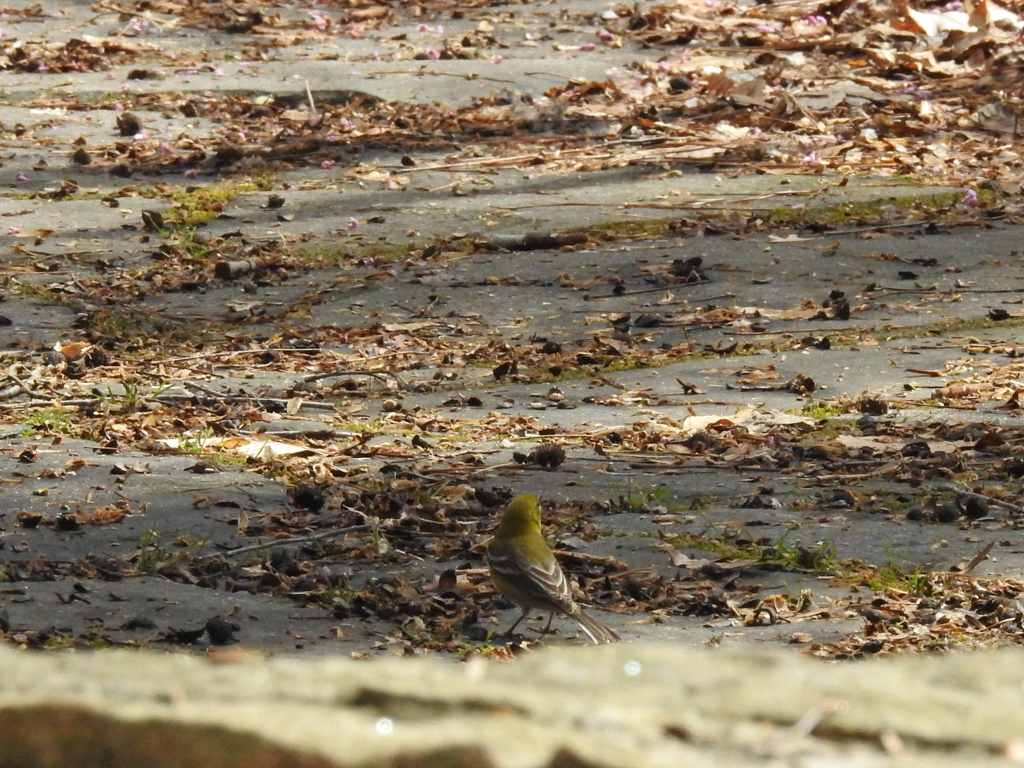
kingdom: Animalia
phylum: Chordata
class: Aves
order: Passeriformes
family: Parulidae
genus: Setophaga
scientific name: Setophaga pinus
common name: Pine warbler
